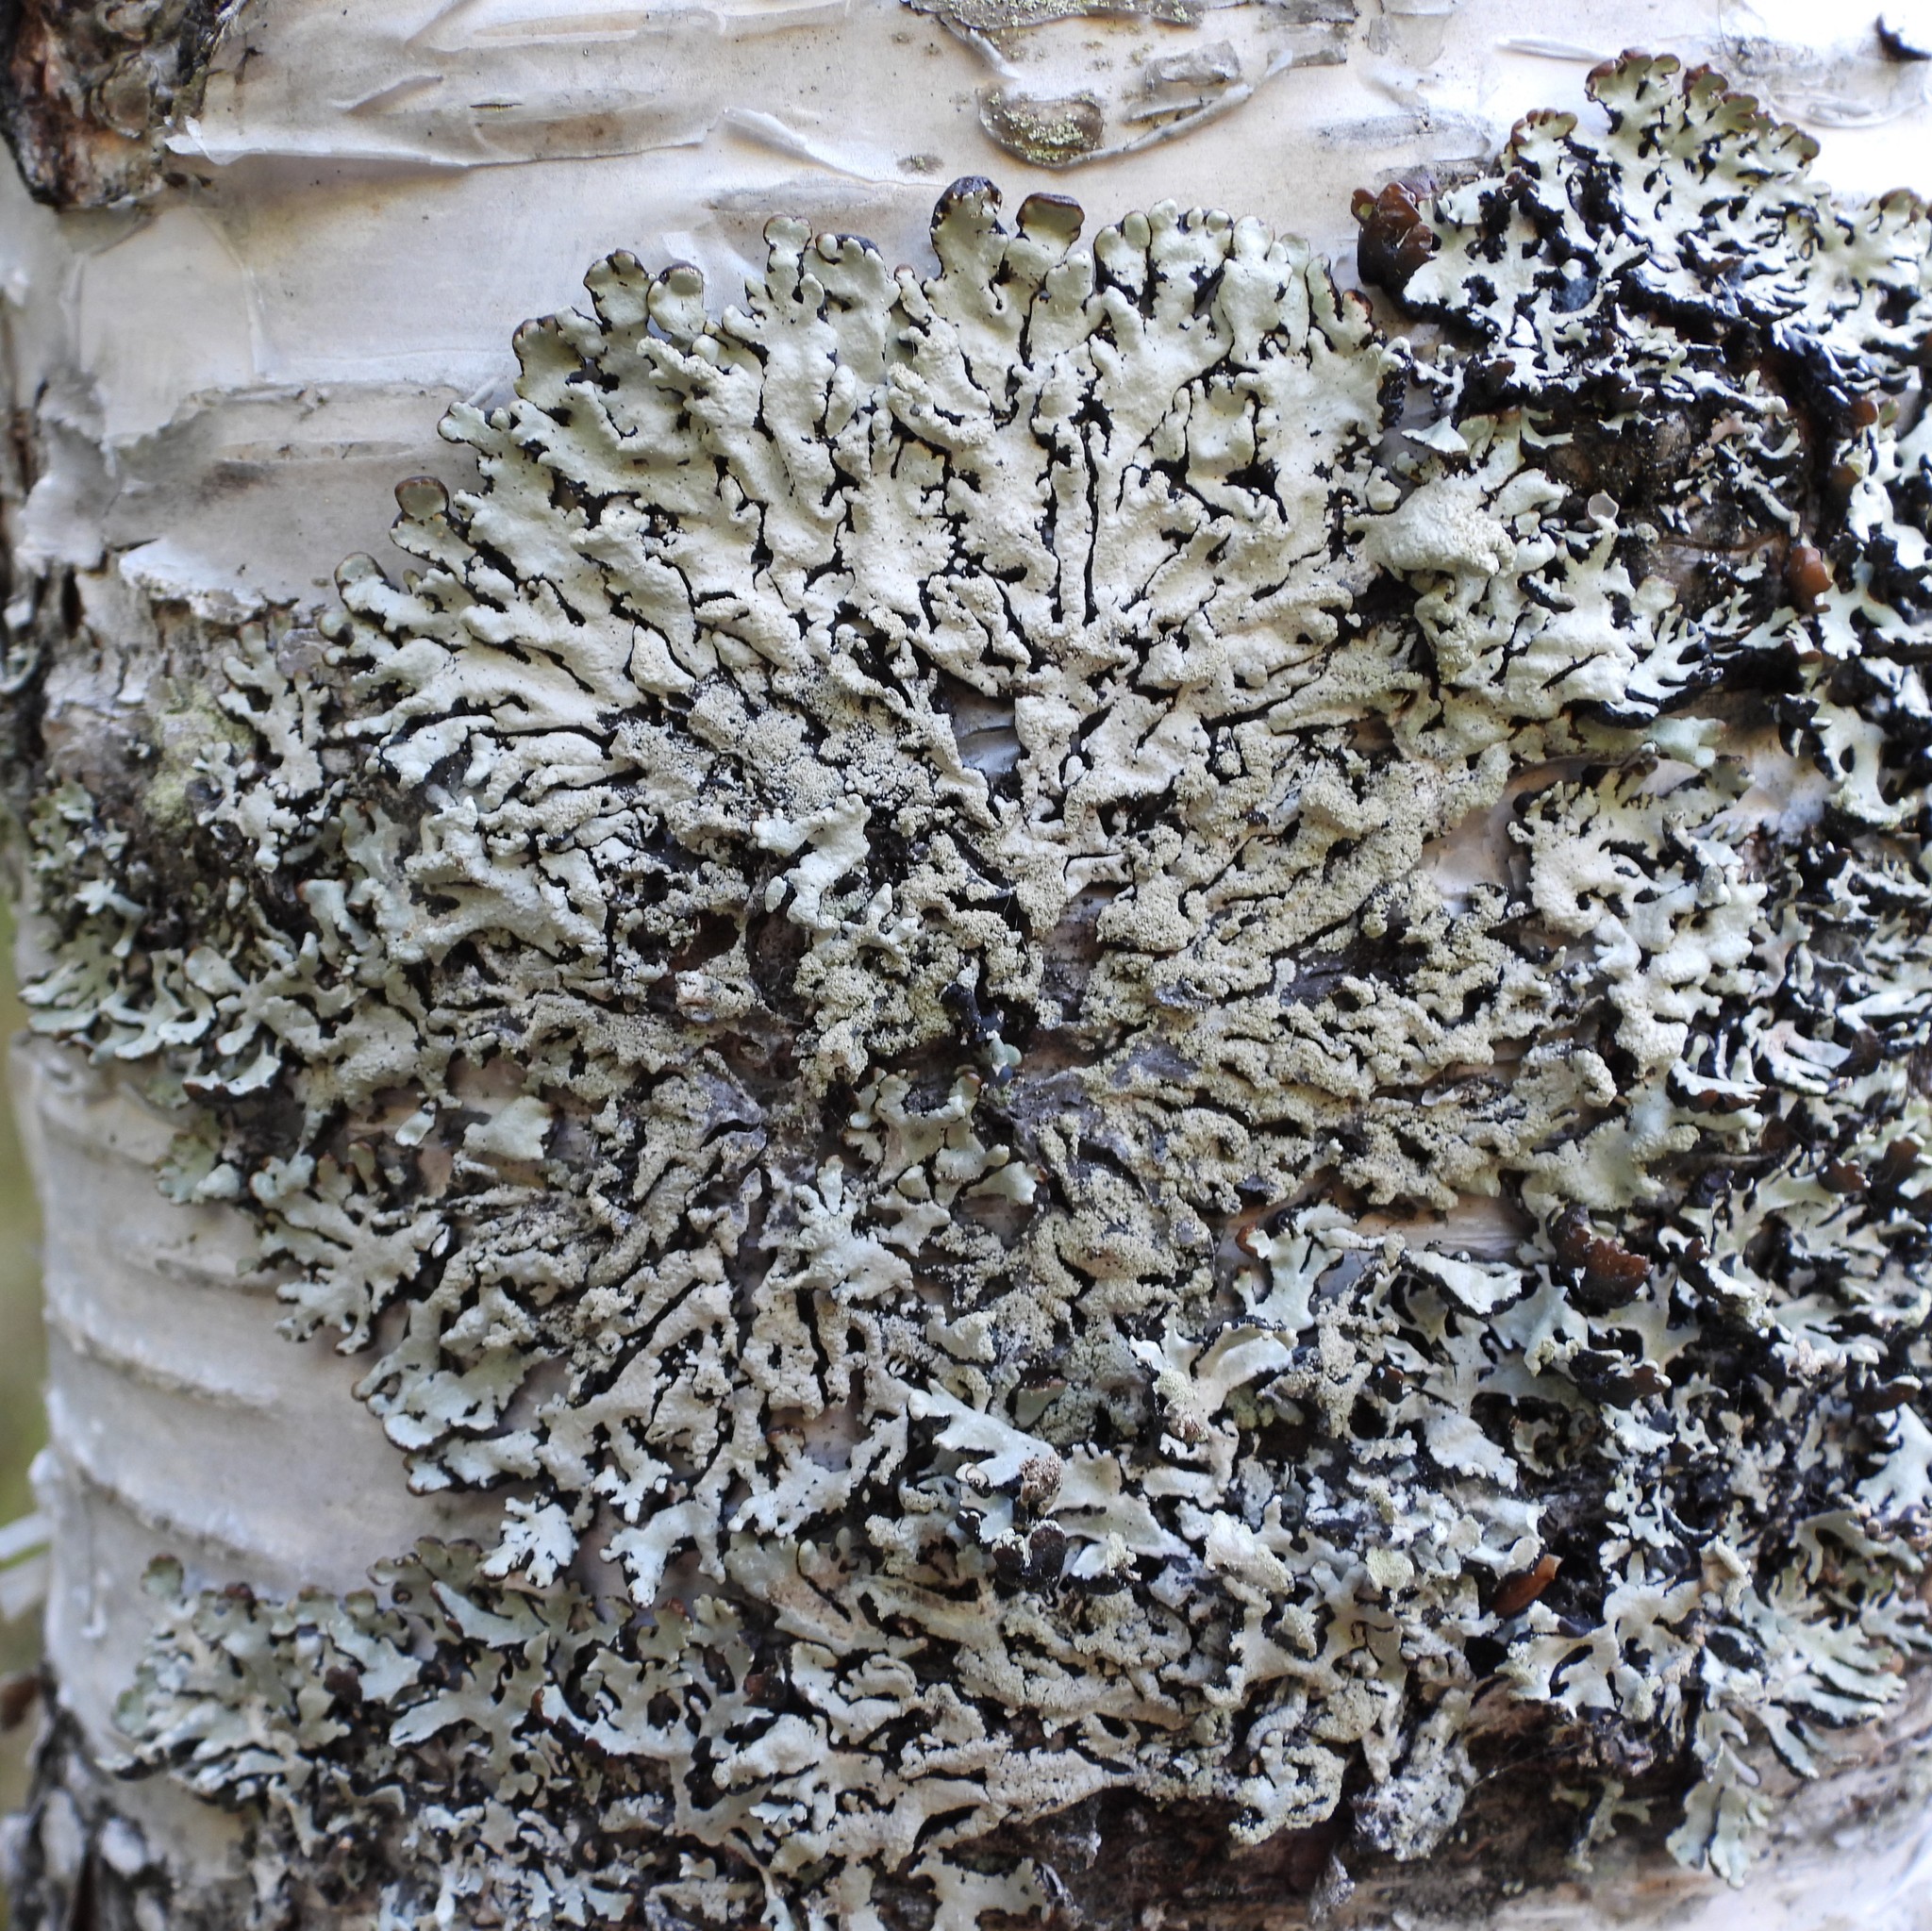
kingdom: Fungi
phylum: Ascomycota
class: Lecanoromycetes
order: Lecanorales
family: Parmeliaceae
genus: Hypogymnia
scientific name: Hypogymnia farinacea
